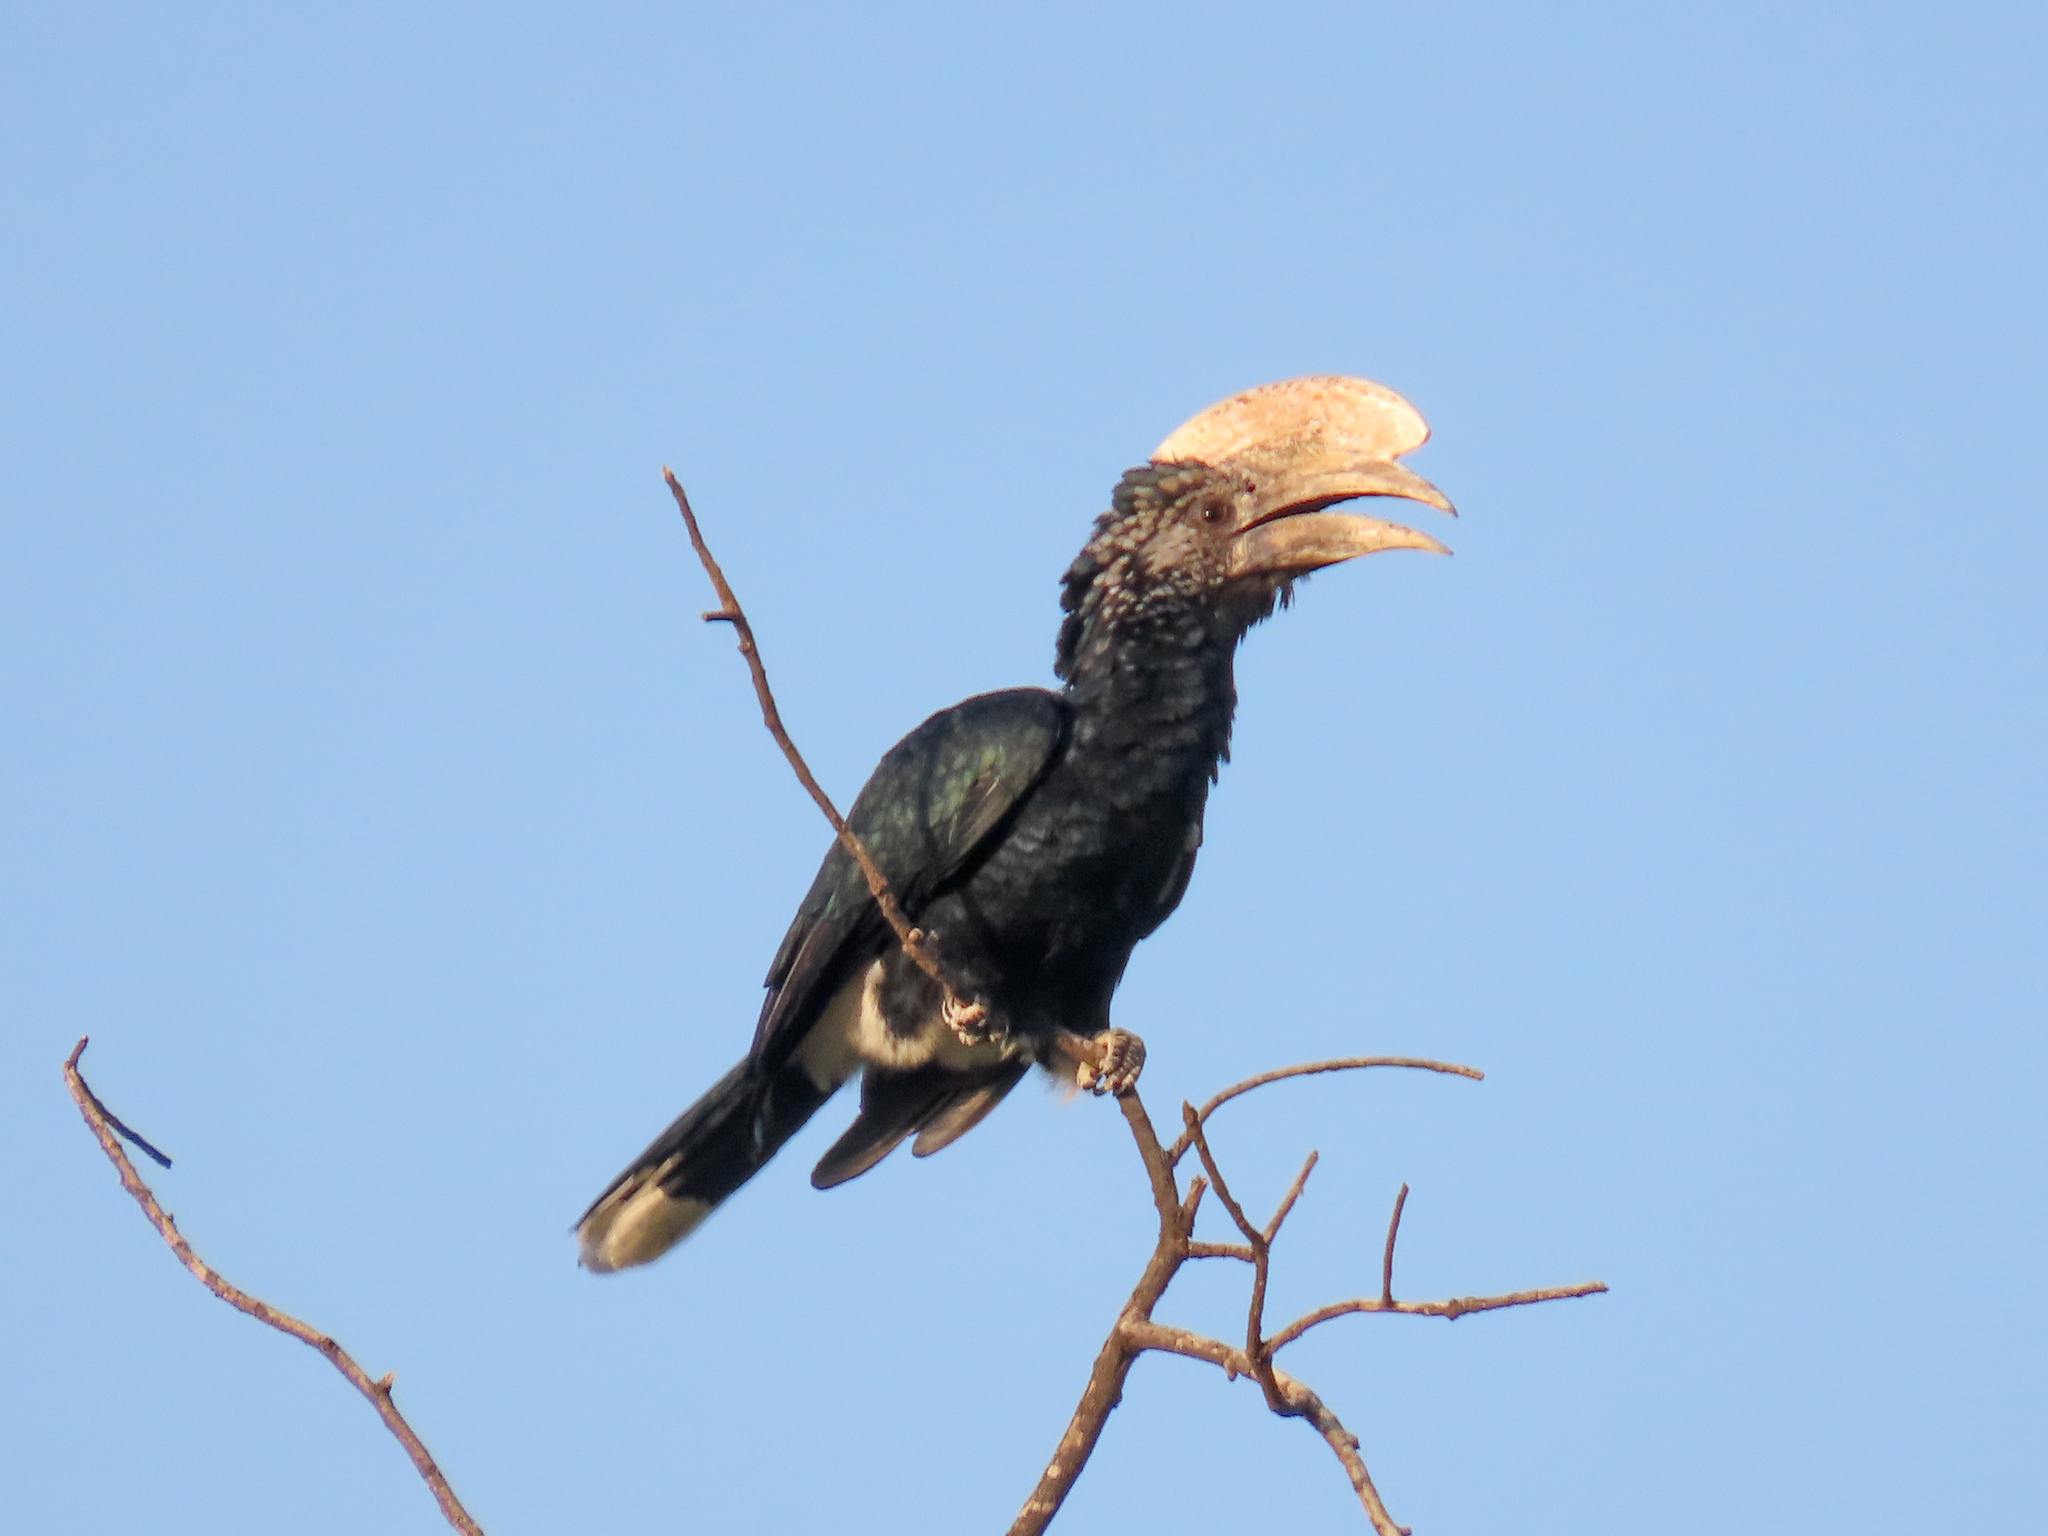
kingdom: Animalia
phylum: Chordata
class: Aves
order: Bucerotiformes
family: Bucerotidae
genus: Bycanistes
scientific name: Bycanistes brevis
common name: Silvery-cheeked hornbill
